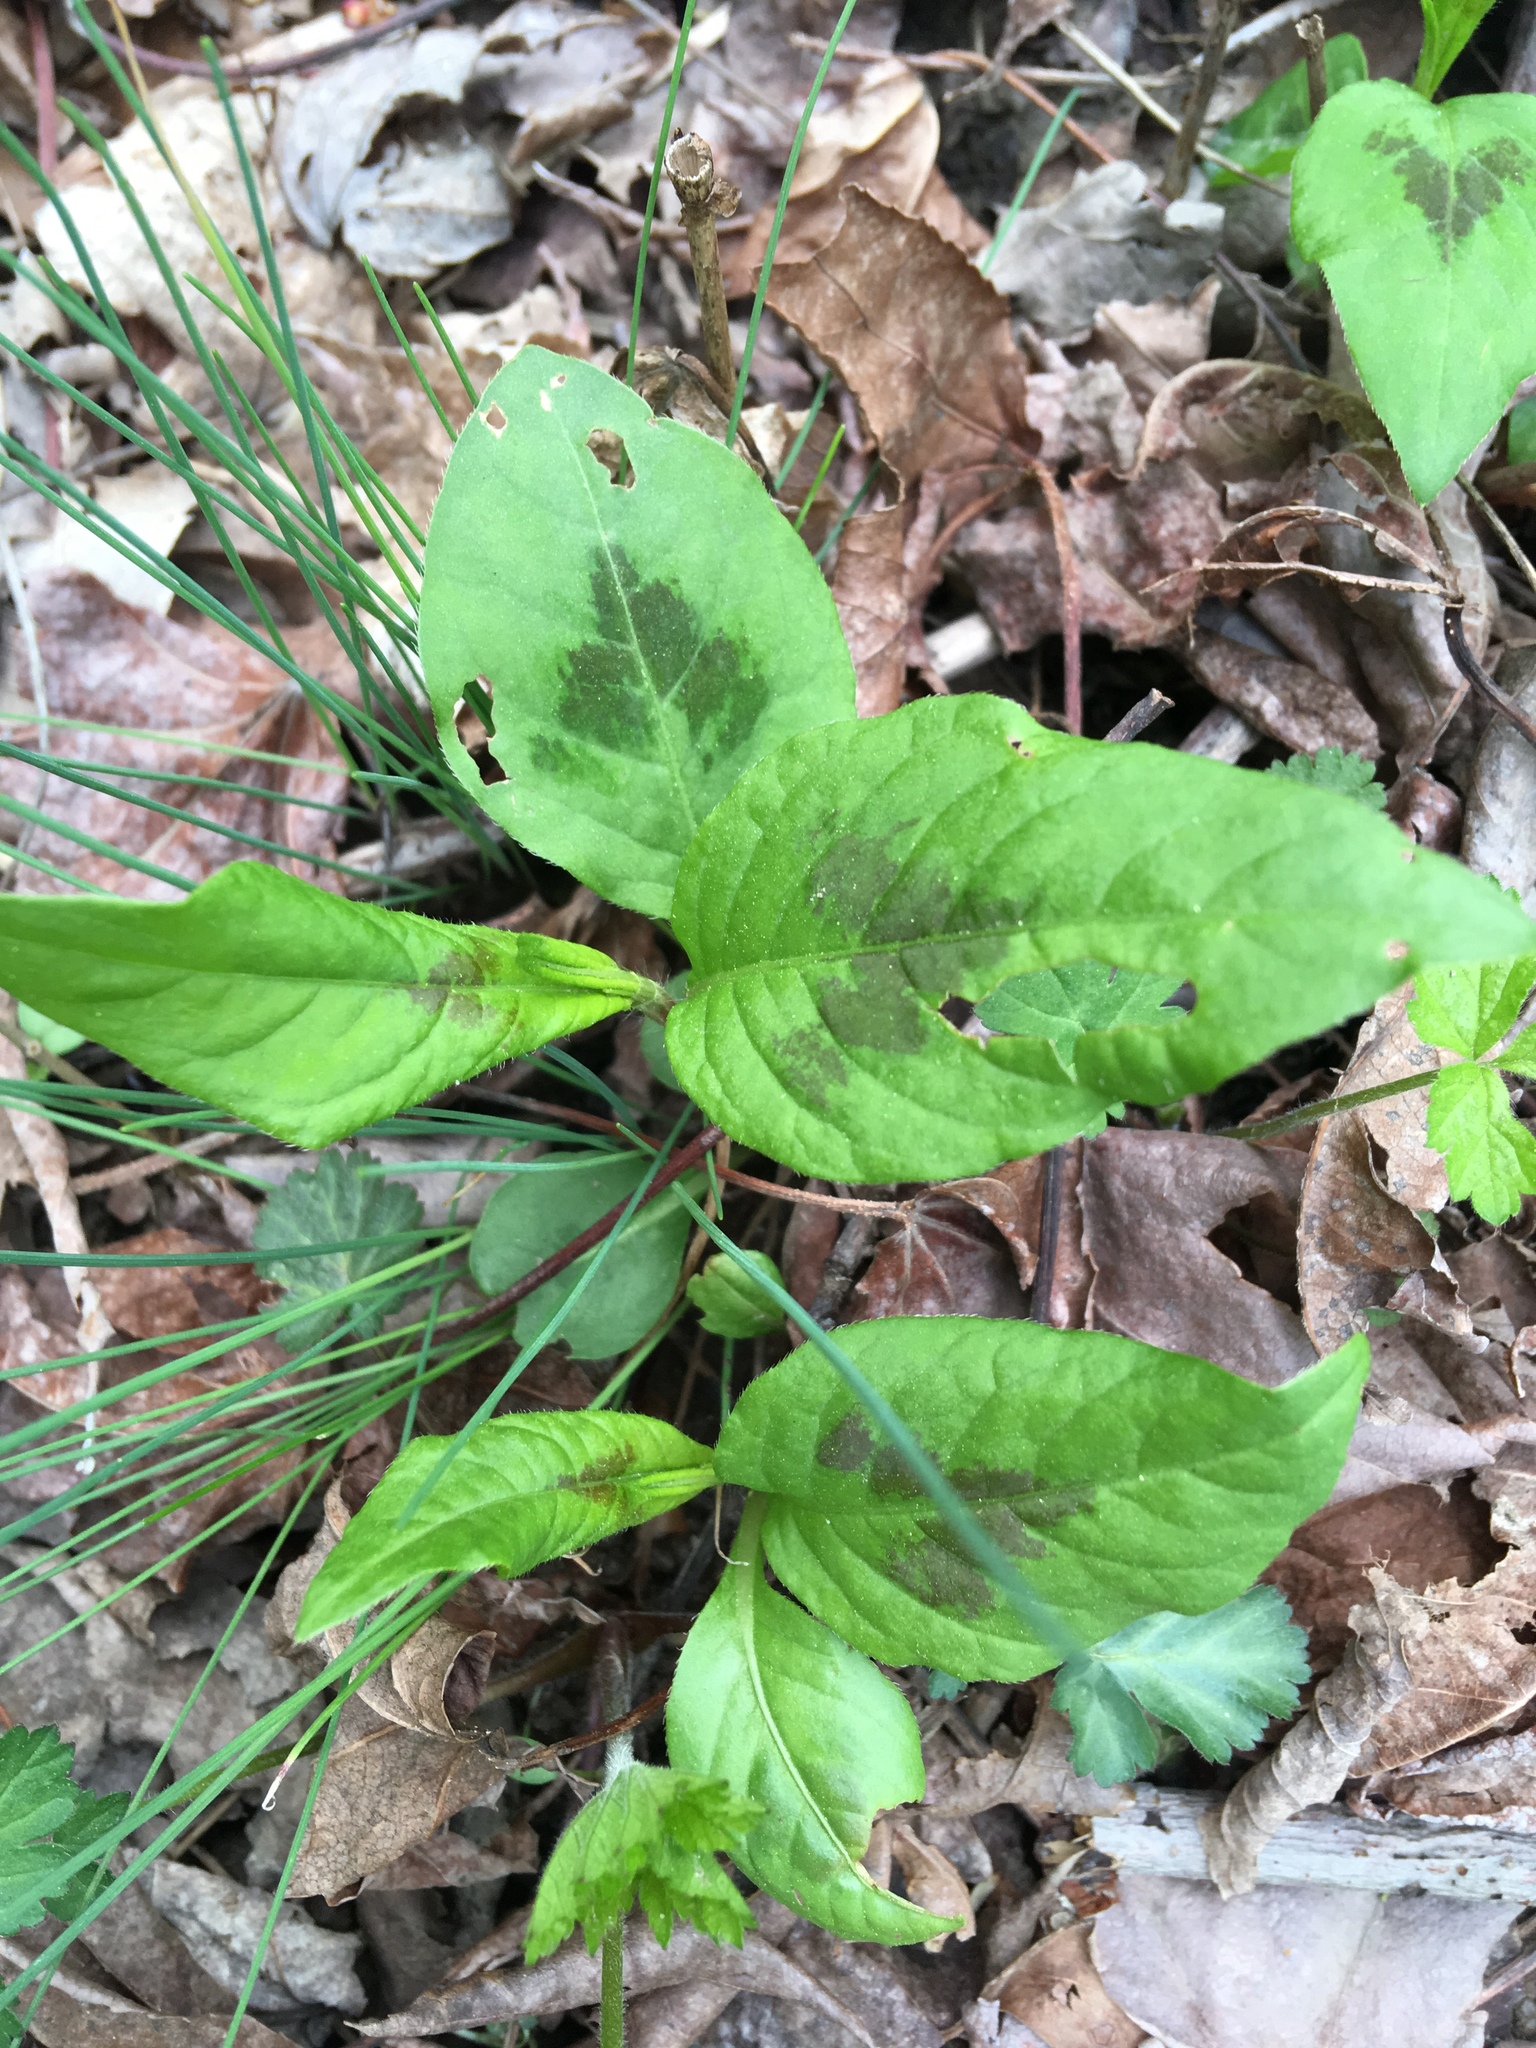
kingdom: Plantae
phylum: Tracheophyta
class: Magnoliopsida
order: Caryophyllales
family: Polygonaceae
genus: Persicaria
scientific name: Persicaria virginiana
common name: Jumpseed
